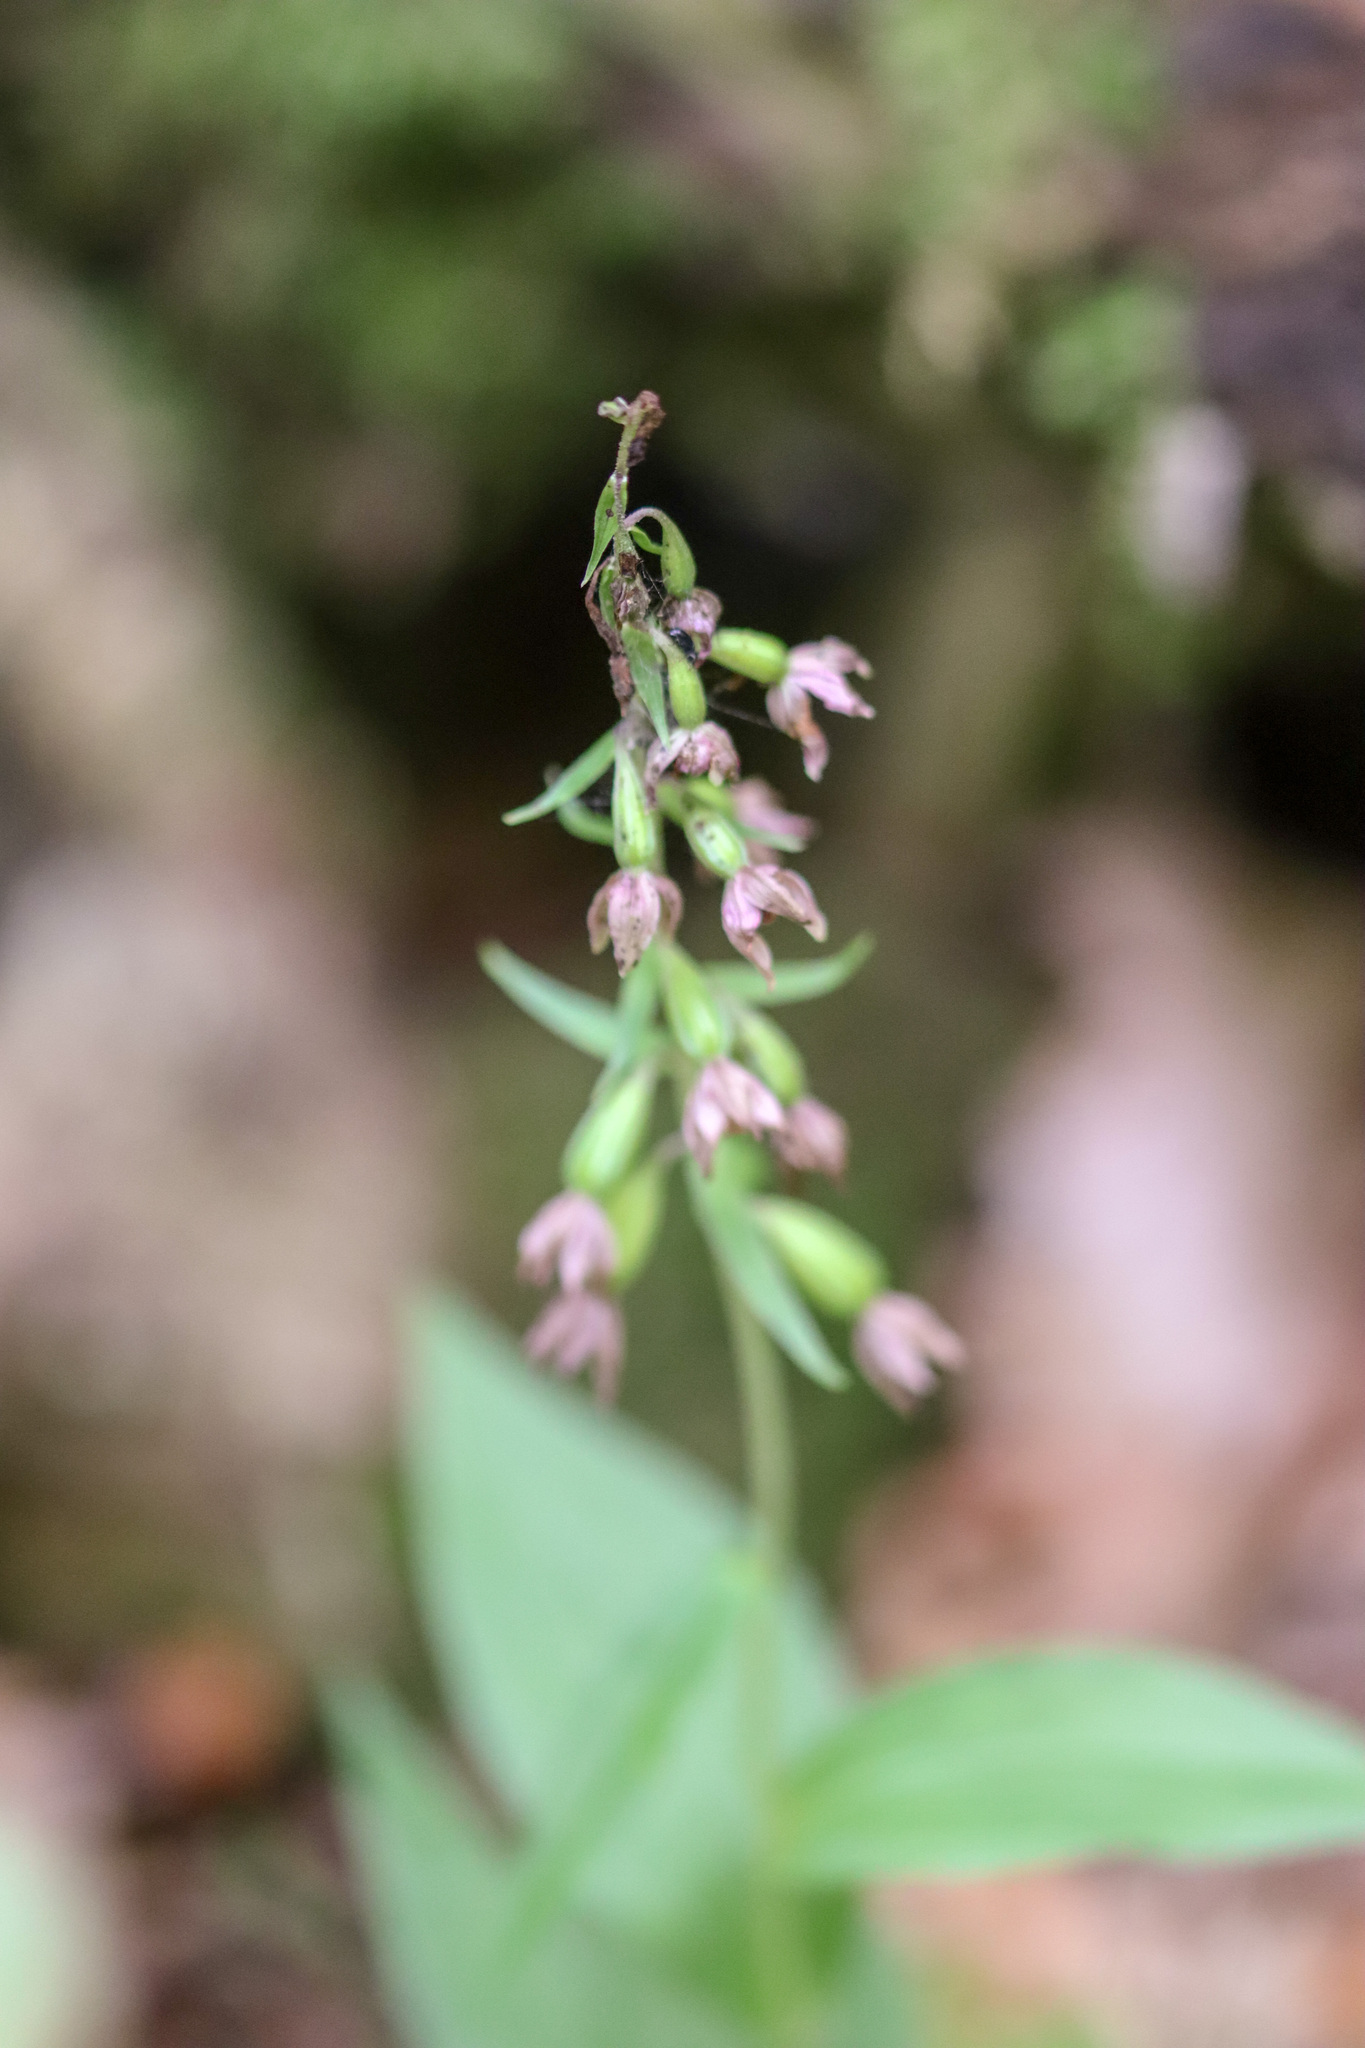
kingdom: Plantae
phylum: Tracheophyta
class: Liliopsida
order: Asparagales
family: Orchidaceae
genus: Epipactis
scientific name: Epipactis helleborine
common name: Broad-leaved helleborine
